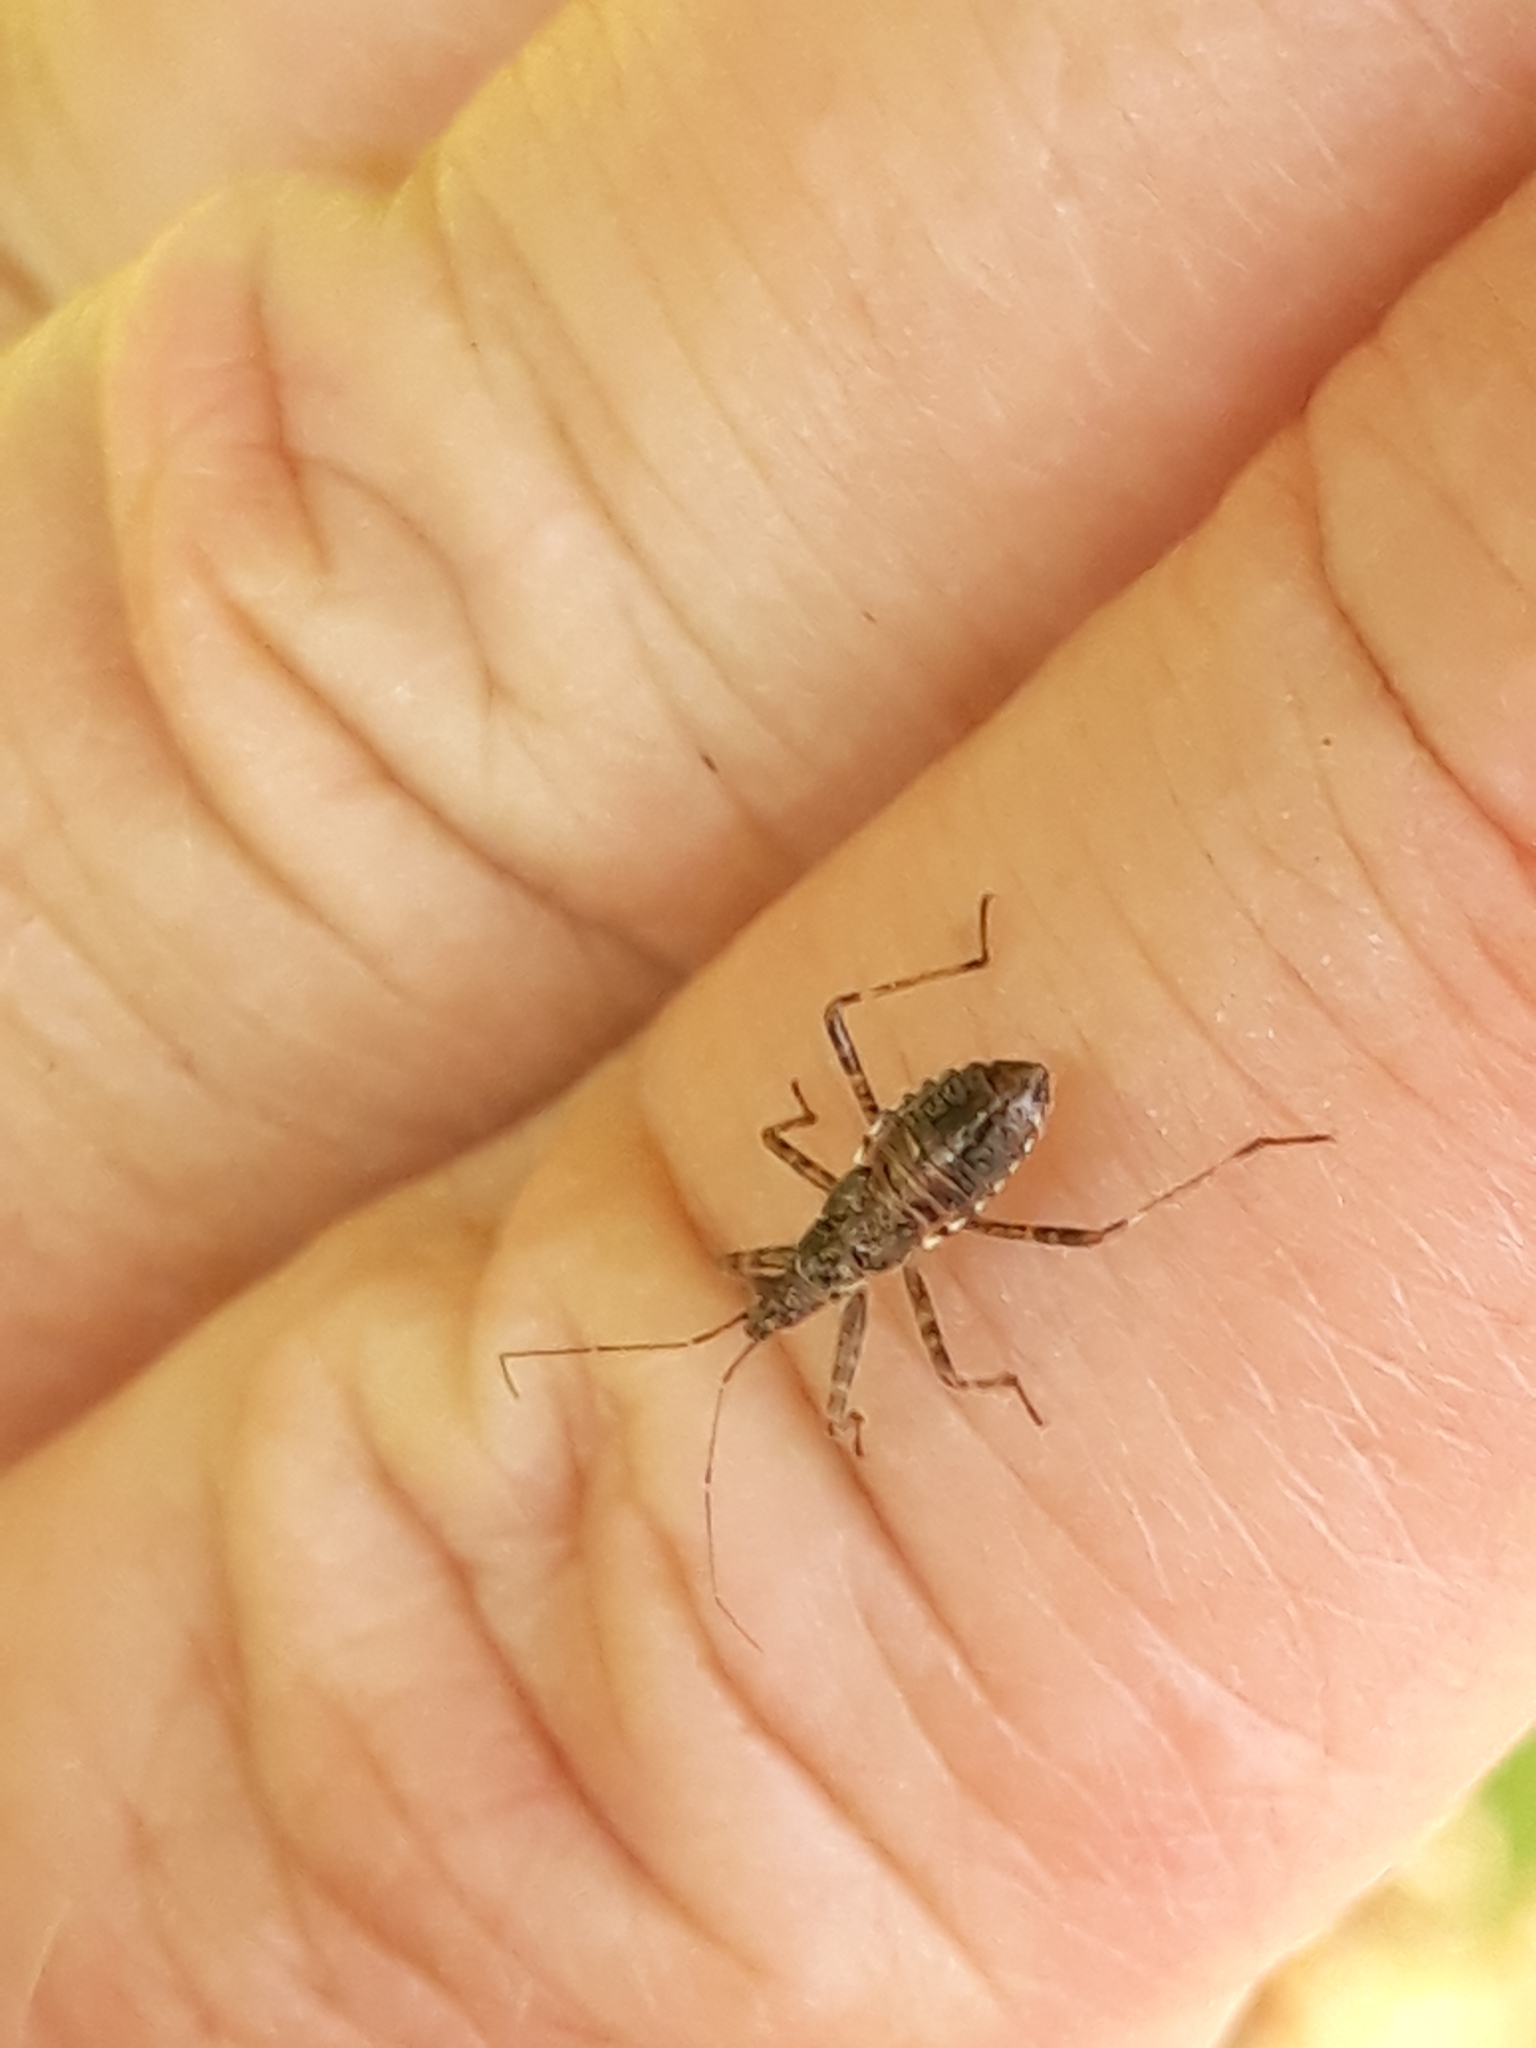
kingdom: Animalia
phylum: Arthropoda
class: Insecta
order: Hemiptera
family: Nabidae
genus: Himacerus
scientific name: Himacerus apterus
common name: Tree damsel bug
